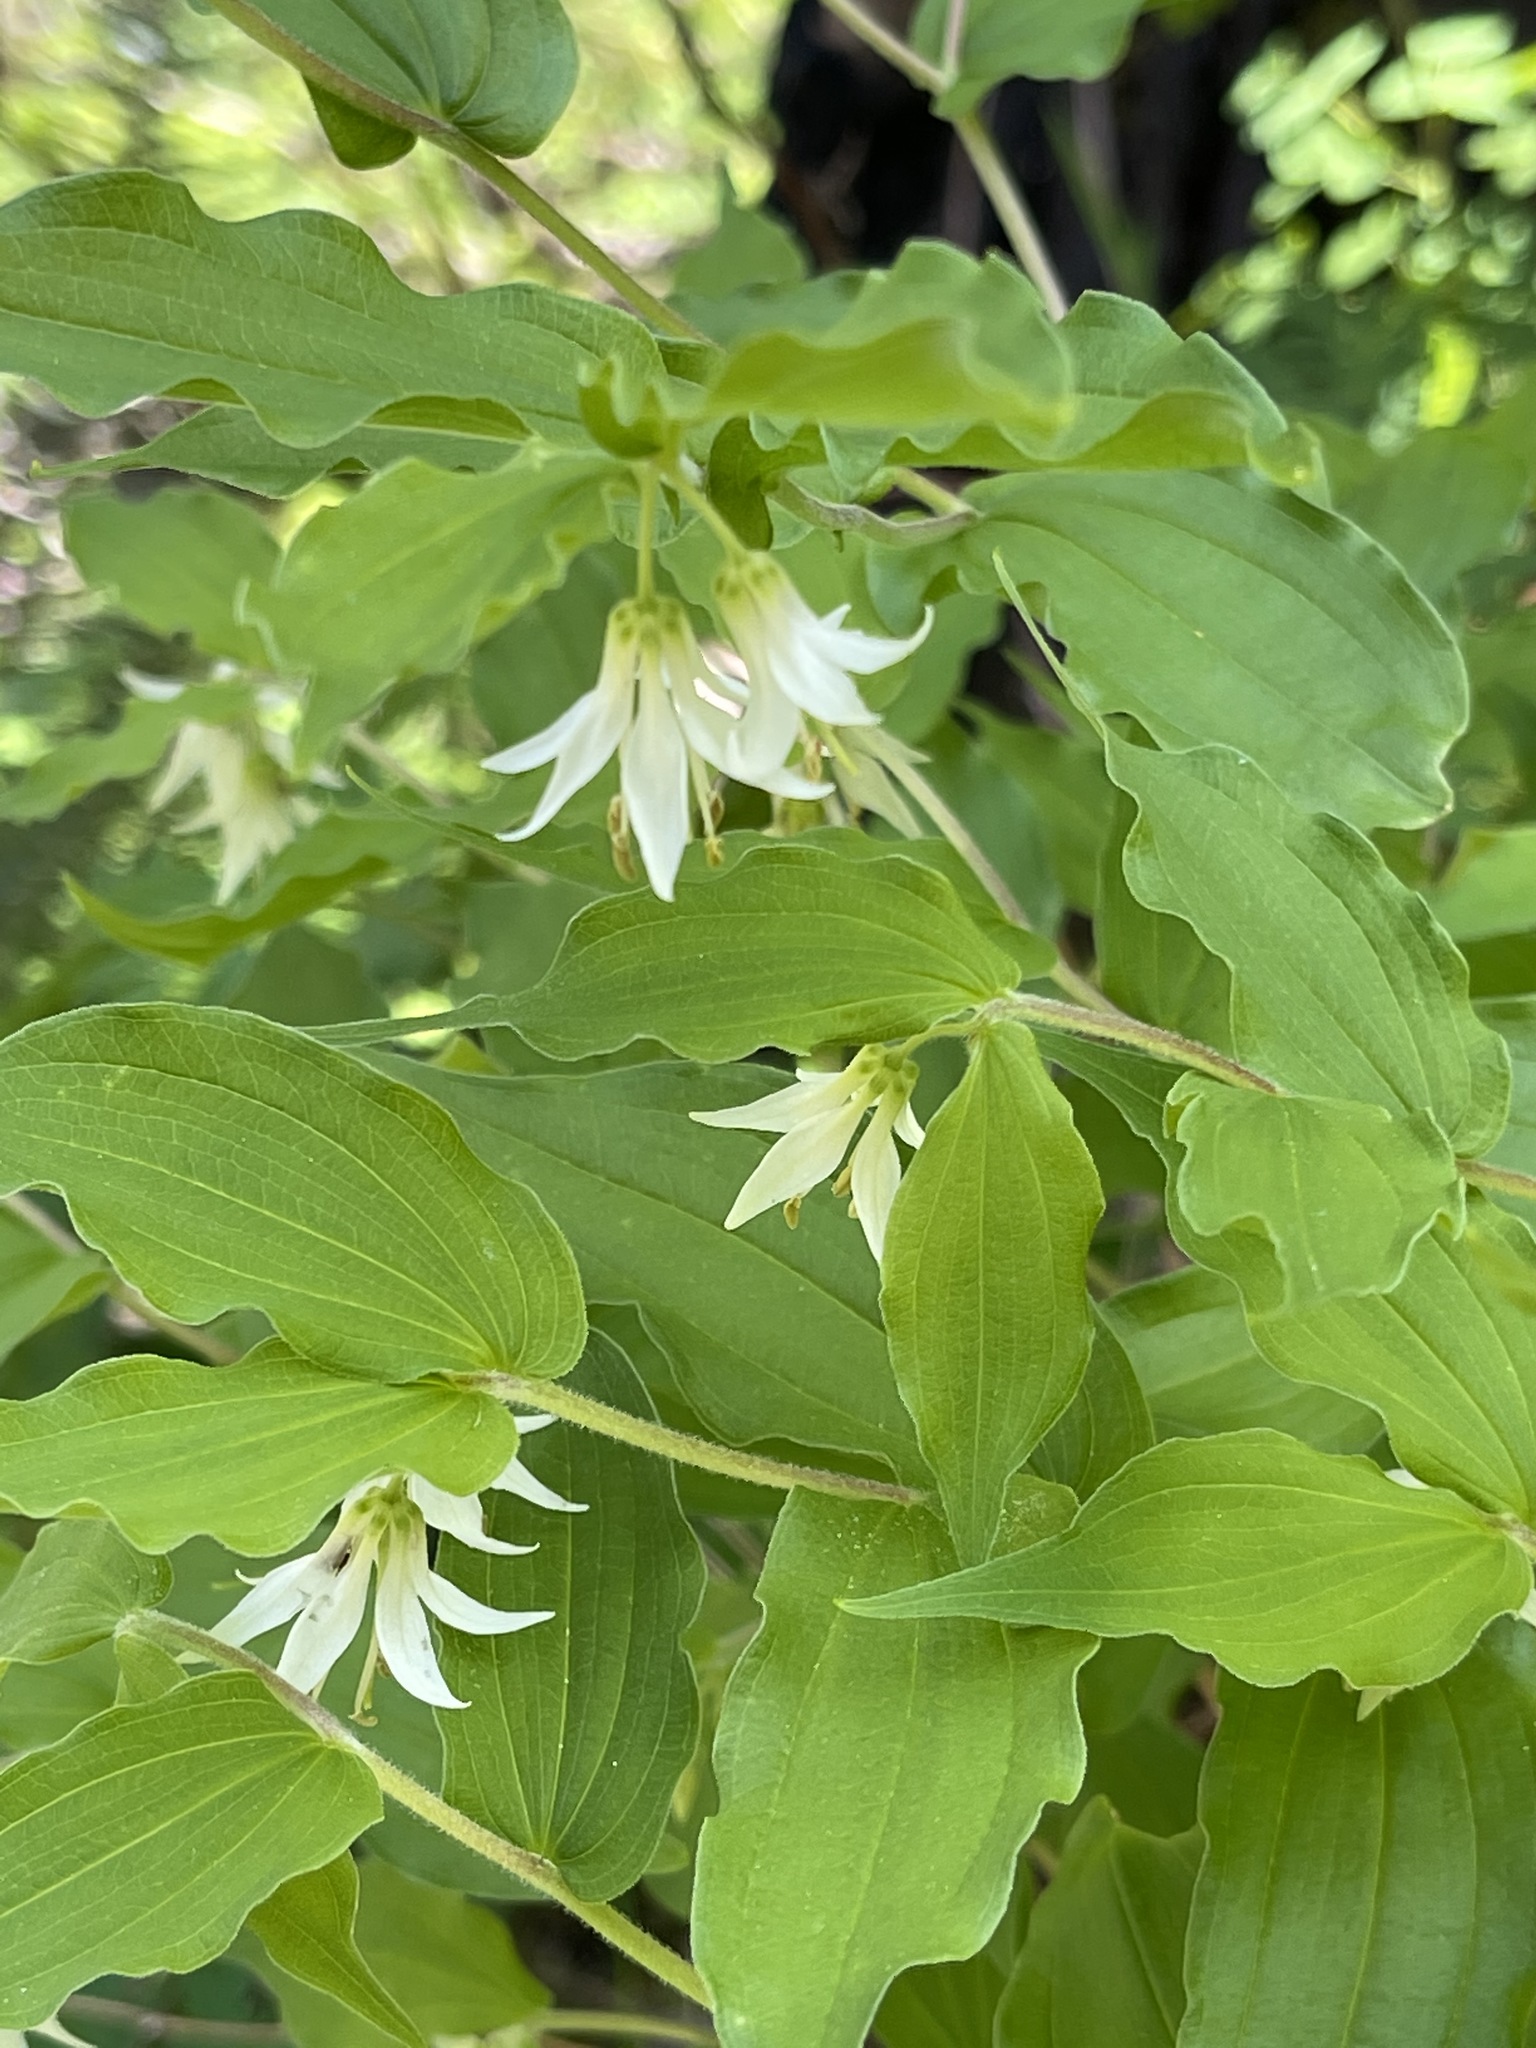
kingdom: Plantae
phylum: Tracheophyta
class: Liliopsida
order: Liliales
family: Liliaceae
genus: Prosartes
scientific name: Prosartes hookeri
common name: Fairy-bells
